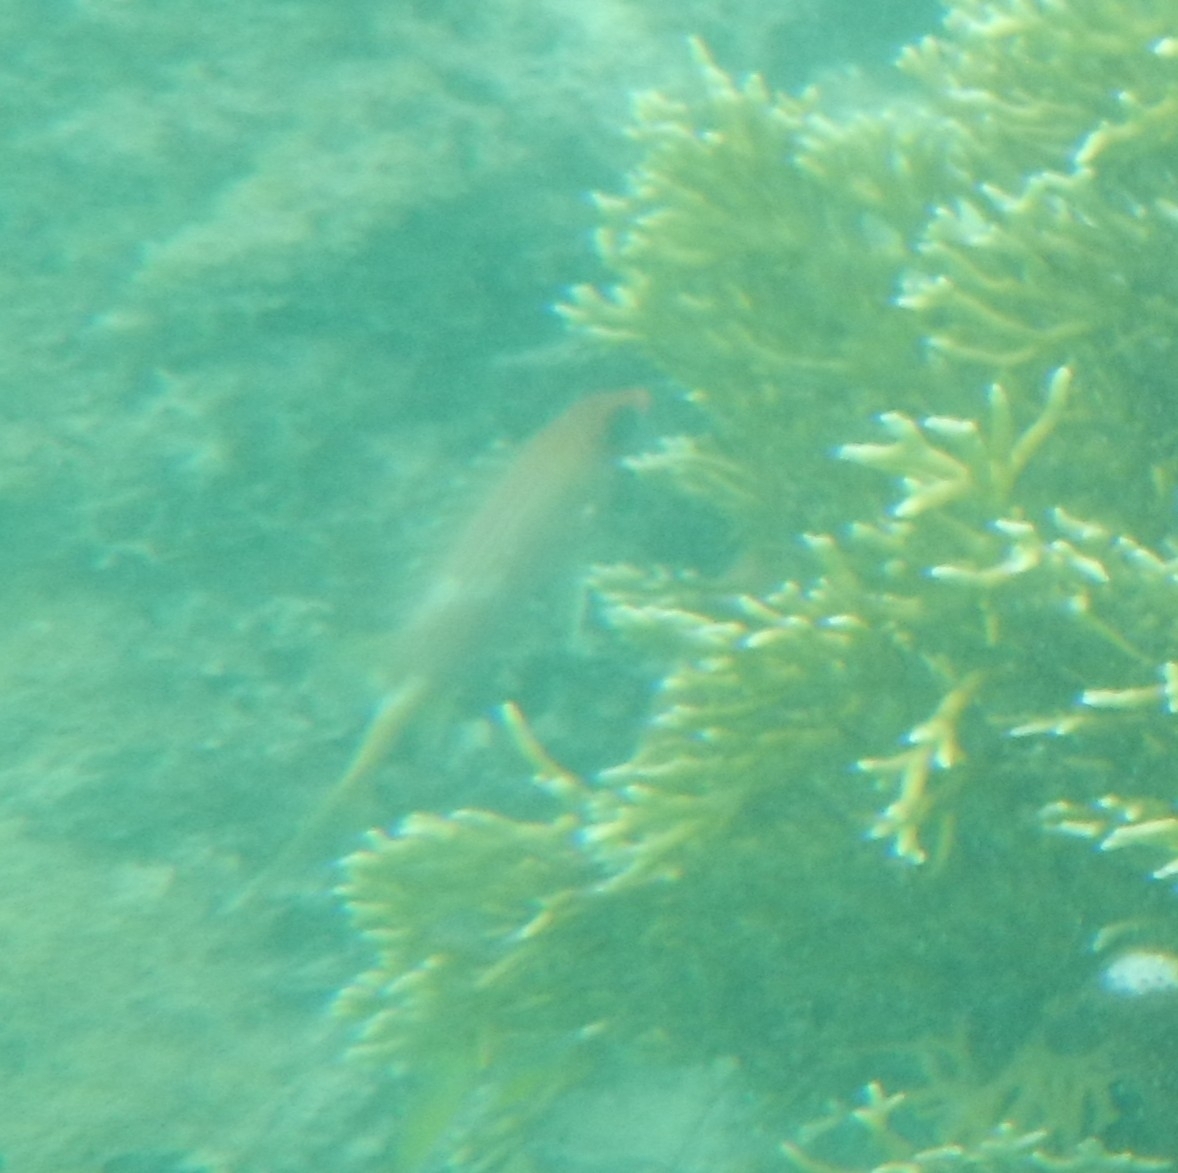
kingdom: Animalia
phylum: Chordata
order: Beryciformes
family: Holocentridae
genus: Holocentrus
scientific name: Holocentrus rufus
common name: Longspine squirrelfish
